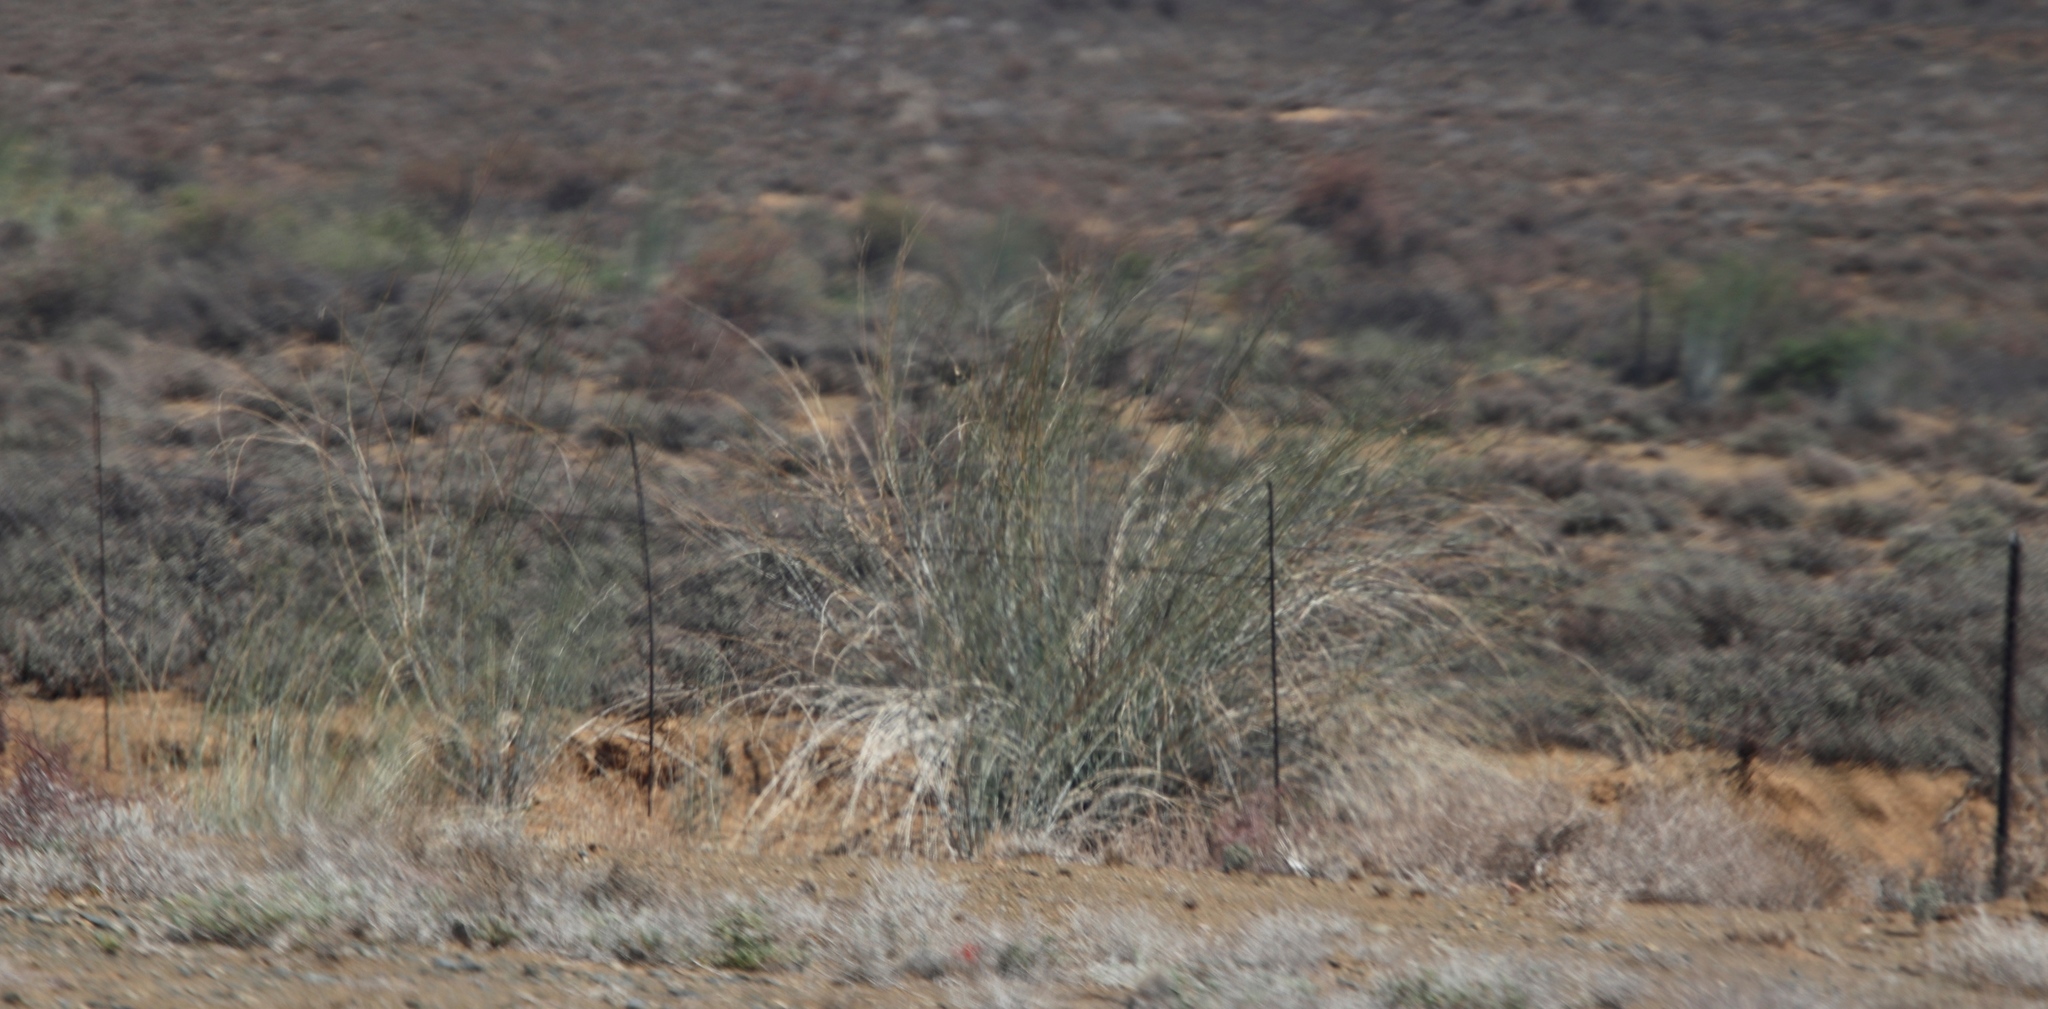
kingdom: Plantae
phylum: Tracheophyta
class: Magnoliopsida
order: Gentianales
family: Apocynaceae
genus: Gomphocarpus
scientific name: Gomphocarpus filiformis
